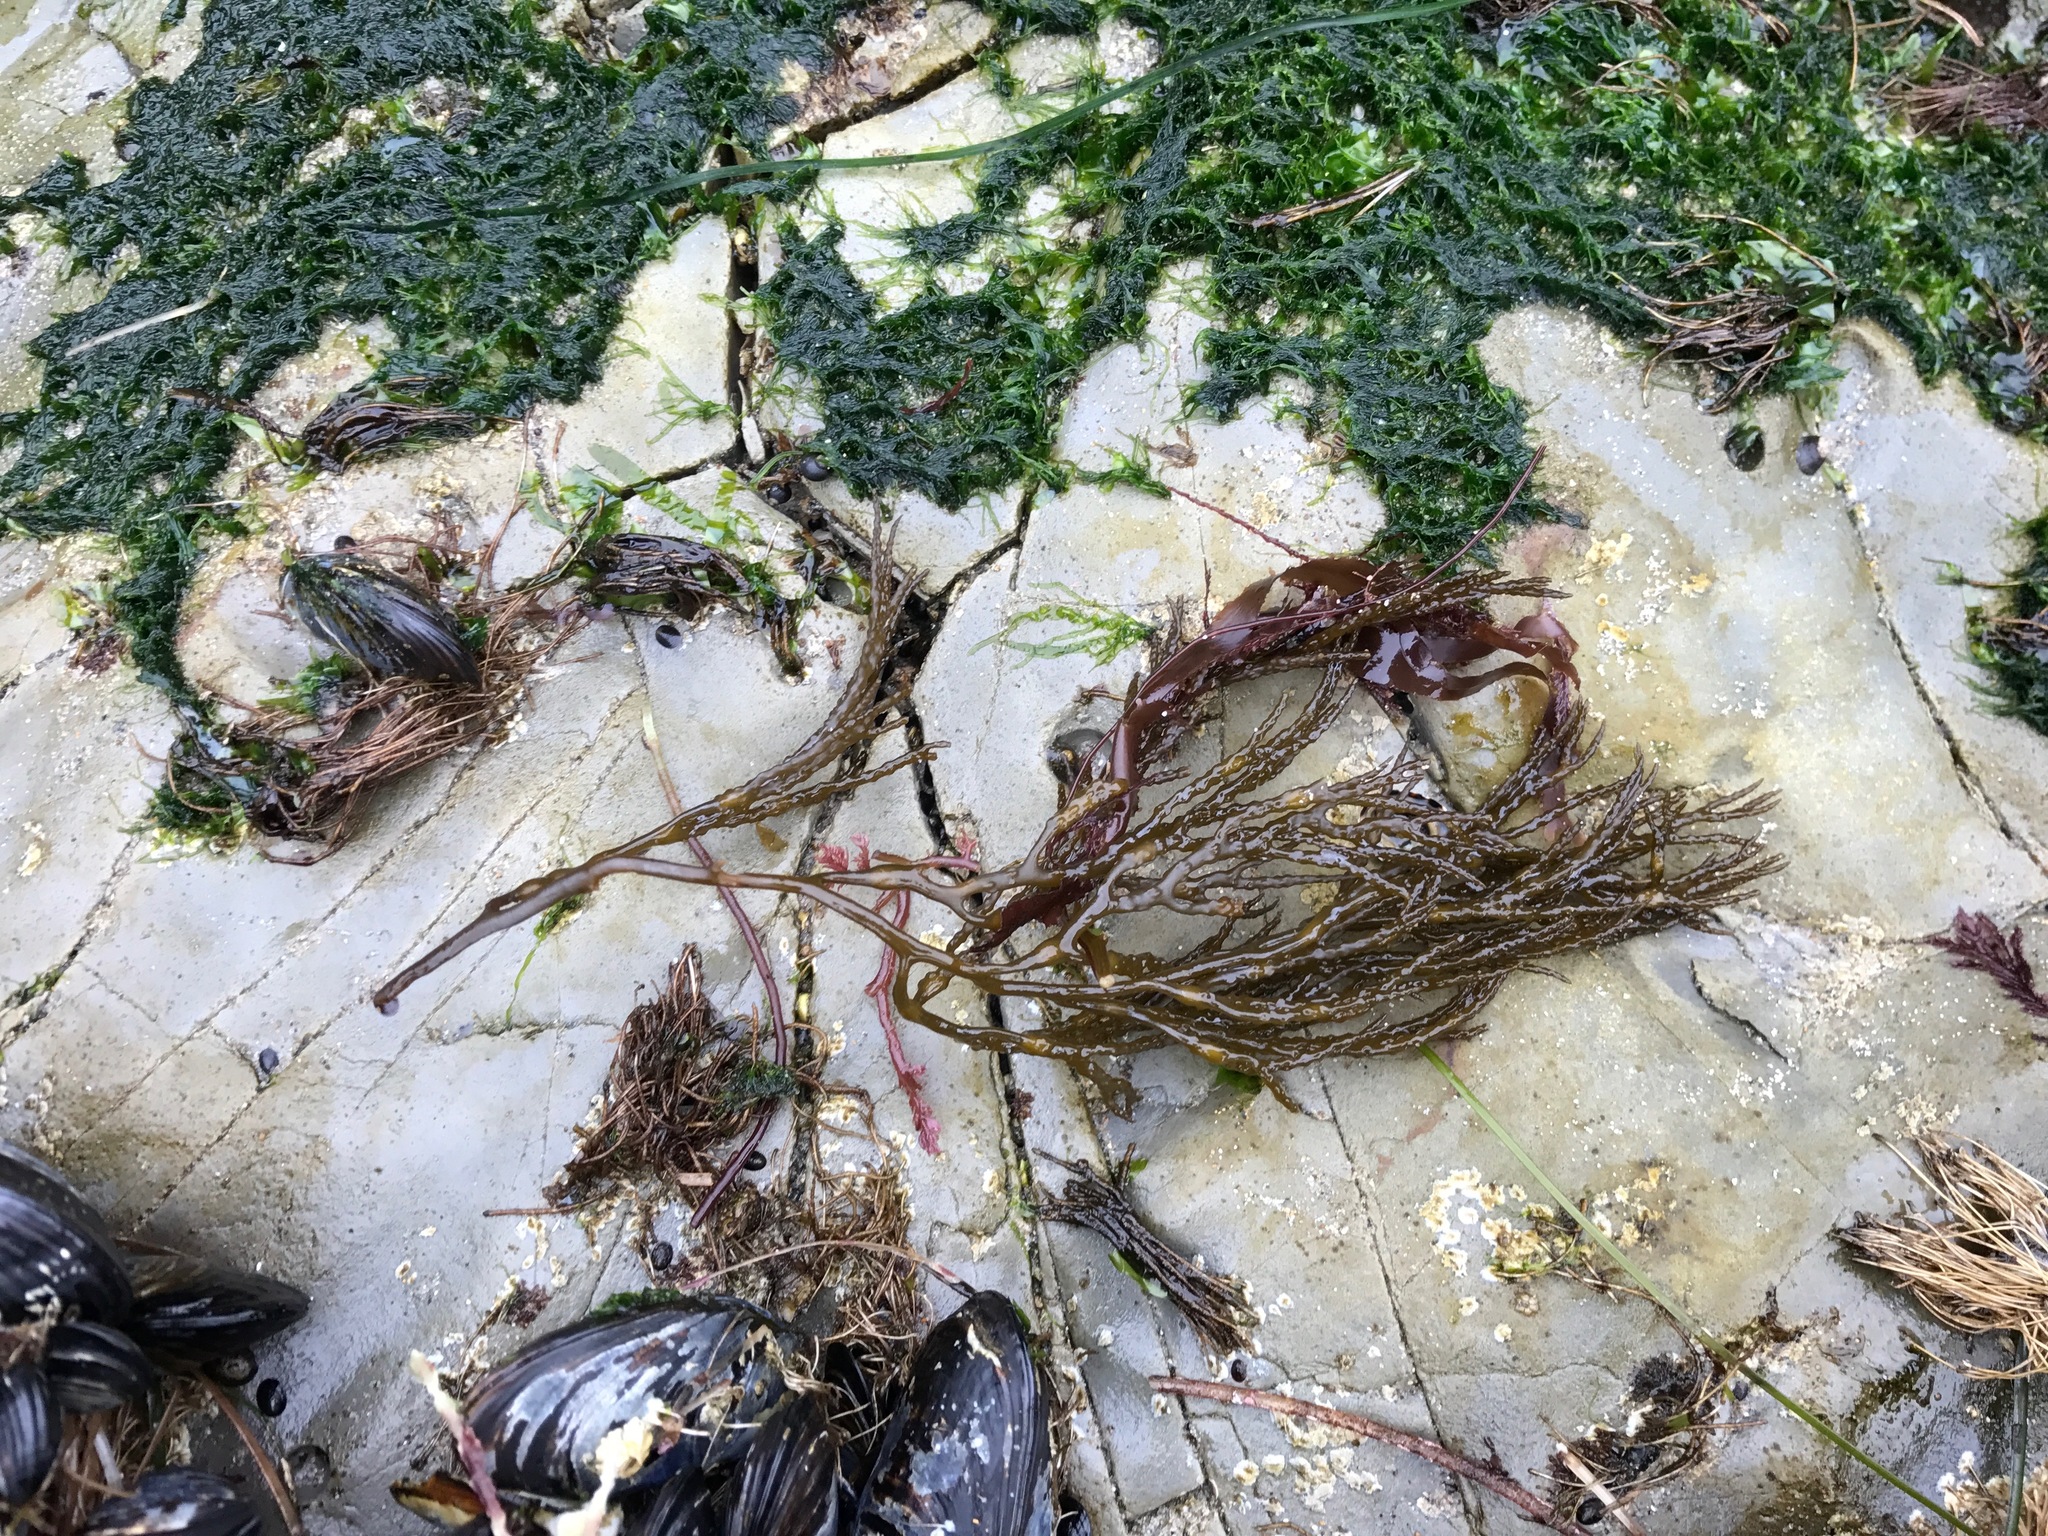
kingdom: Chromista
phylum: Ochrophyta
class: Phaeophyceae
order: Fucales
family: Sargassaceae
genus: Stephanocystis
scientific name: Stephanocystis
